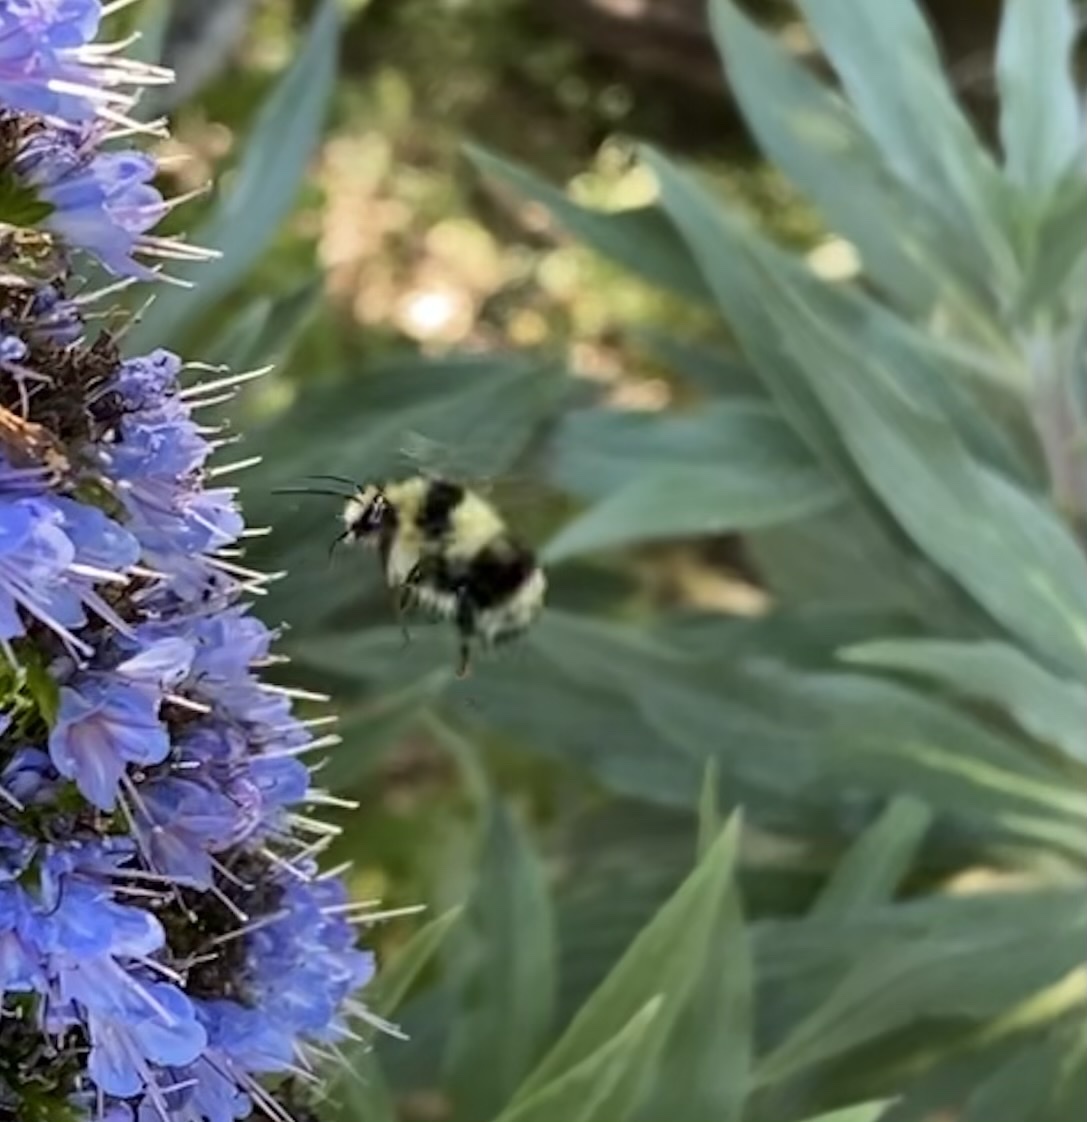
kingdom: Animalia
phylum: Arthropoda
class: Insecta
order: Hymenoptera
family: Apidae
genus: Bombus
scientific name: Bombus melanopygus
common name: Black tail bumble bee
